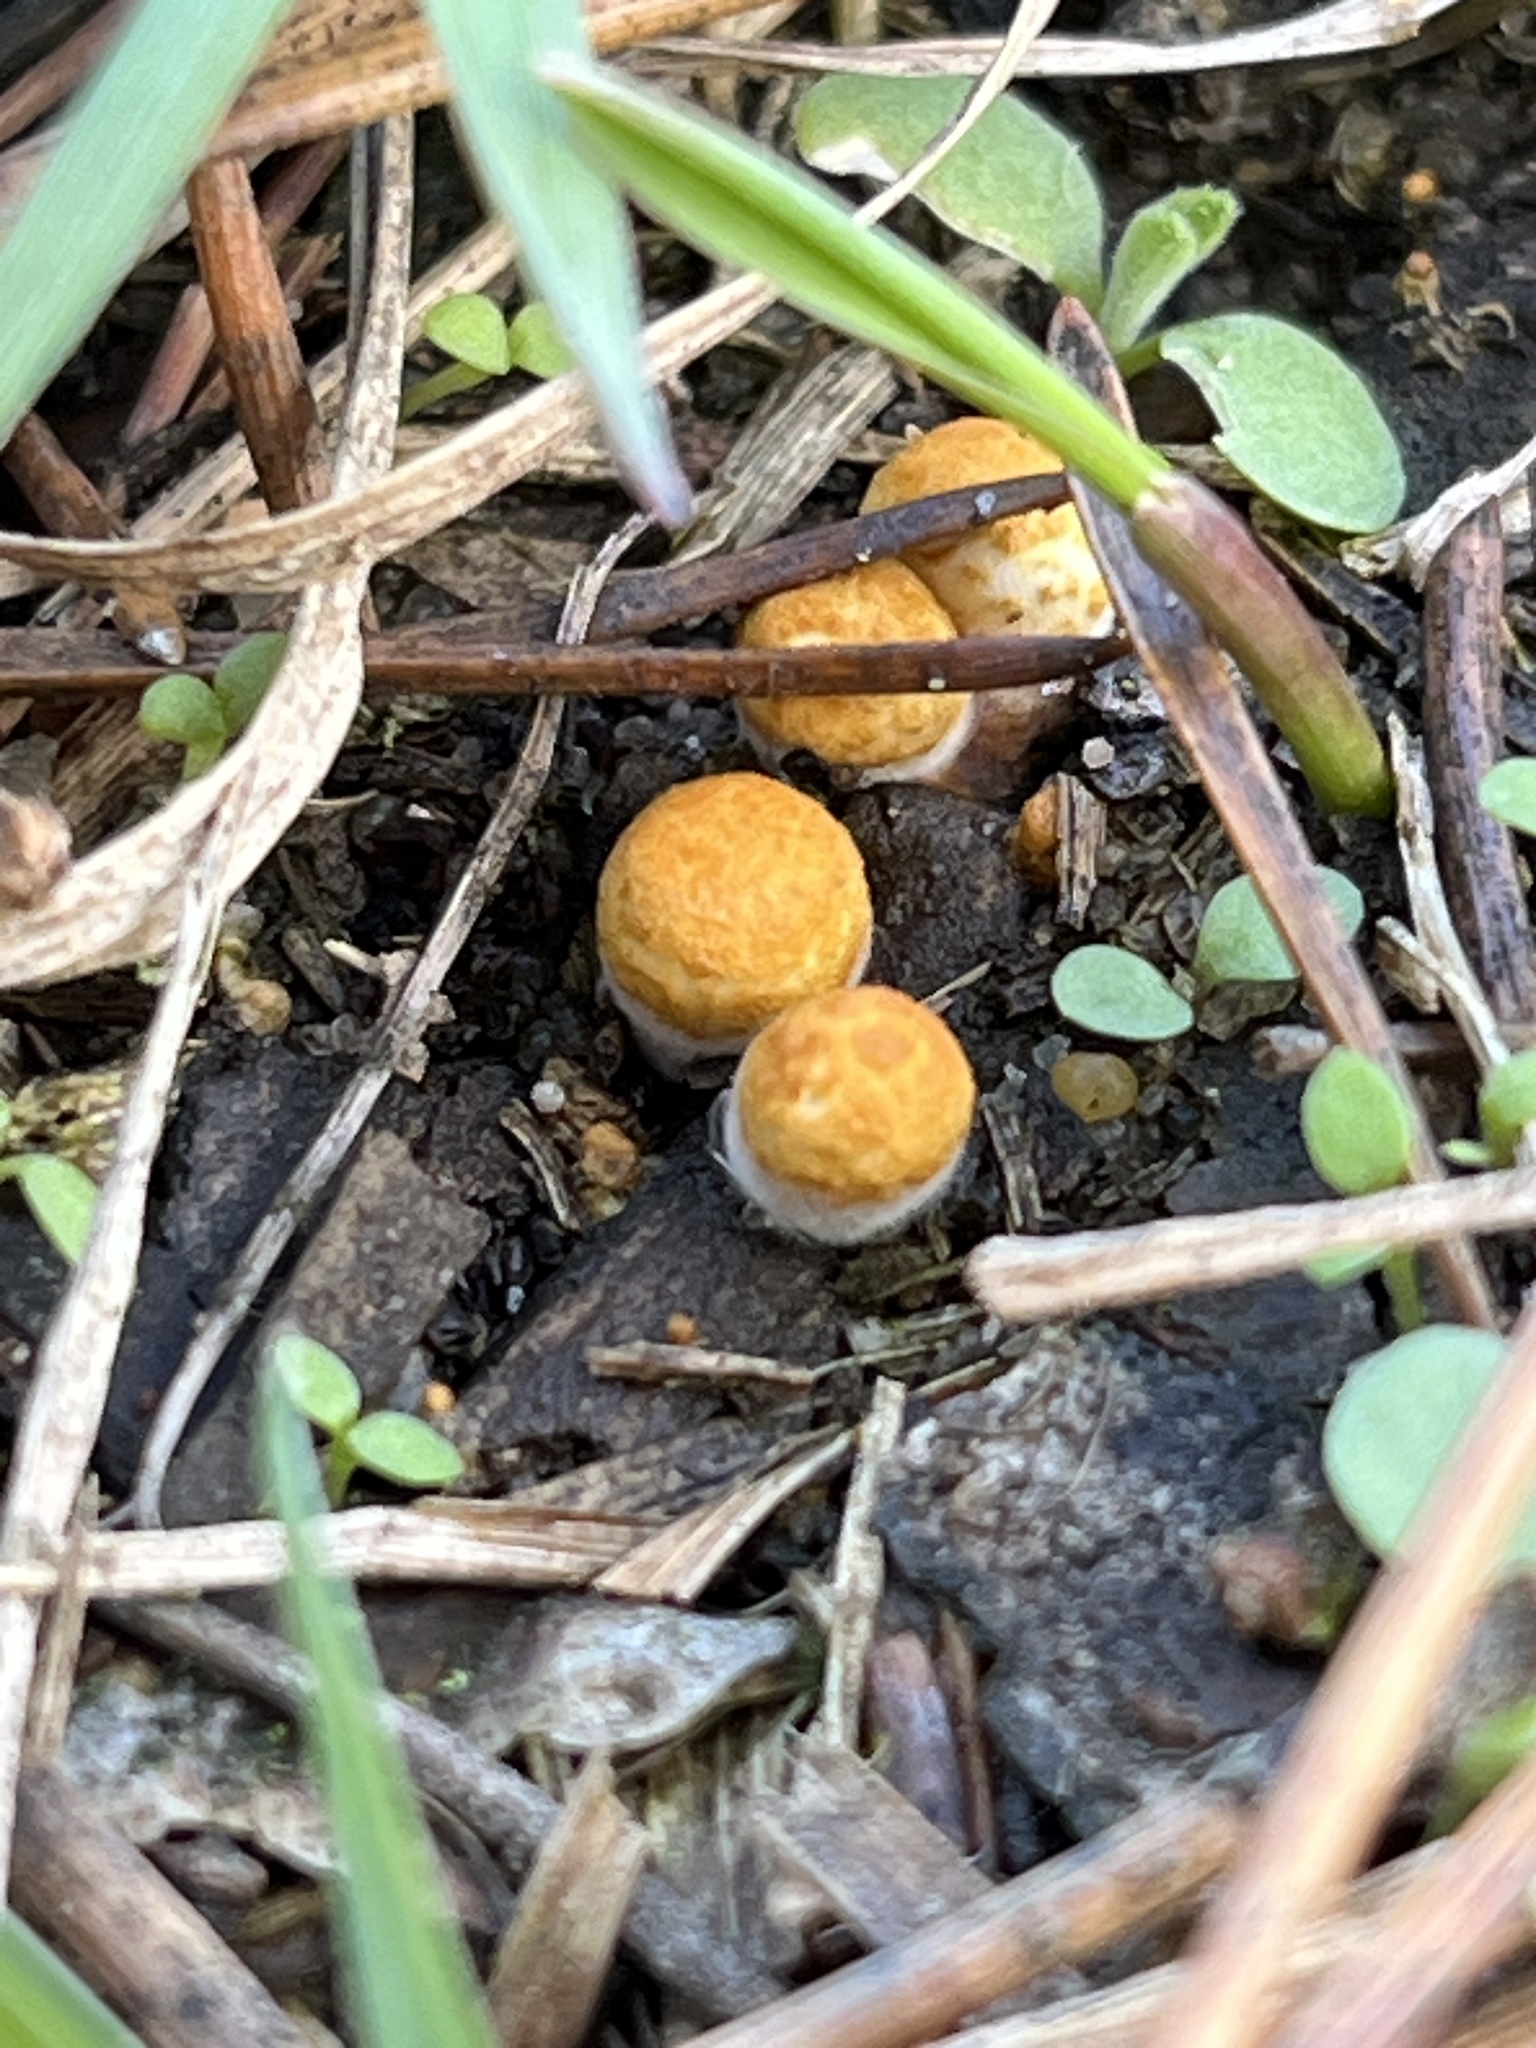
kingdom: Fungi
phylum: Basidiomycota
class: Agaricomycetes
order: Agaricales
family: Nidulariaceae
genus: Crucibulum
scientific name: Crucibulum laeve
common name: Common bird's nest
